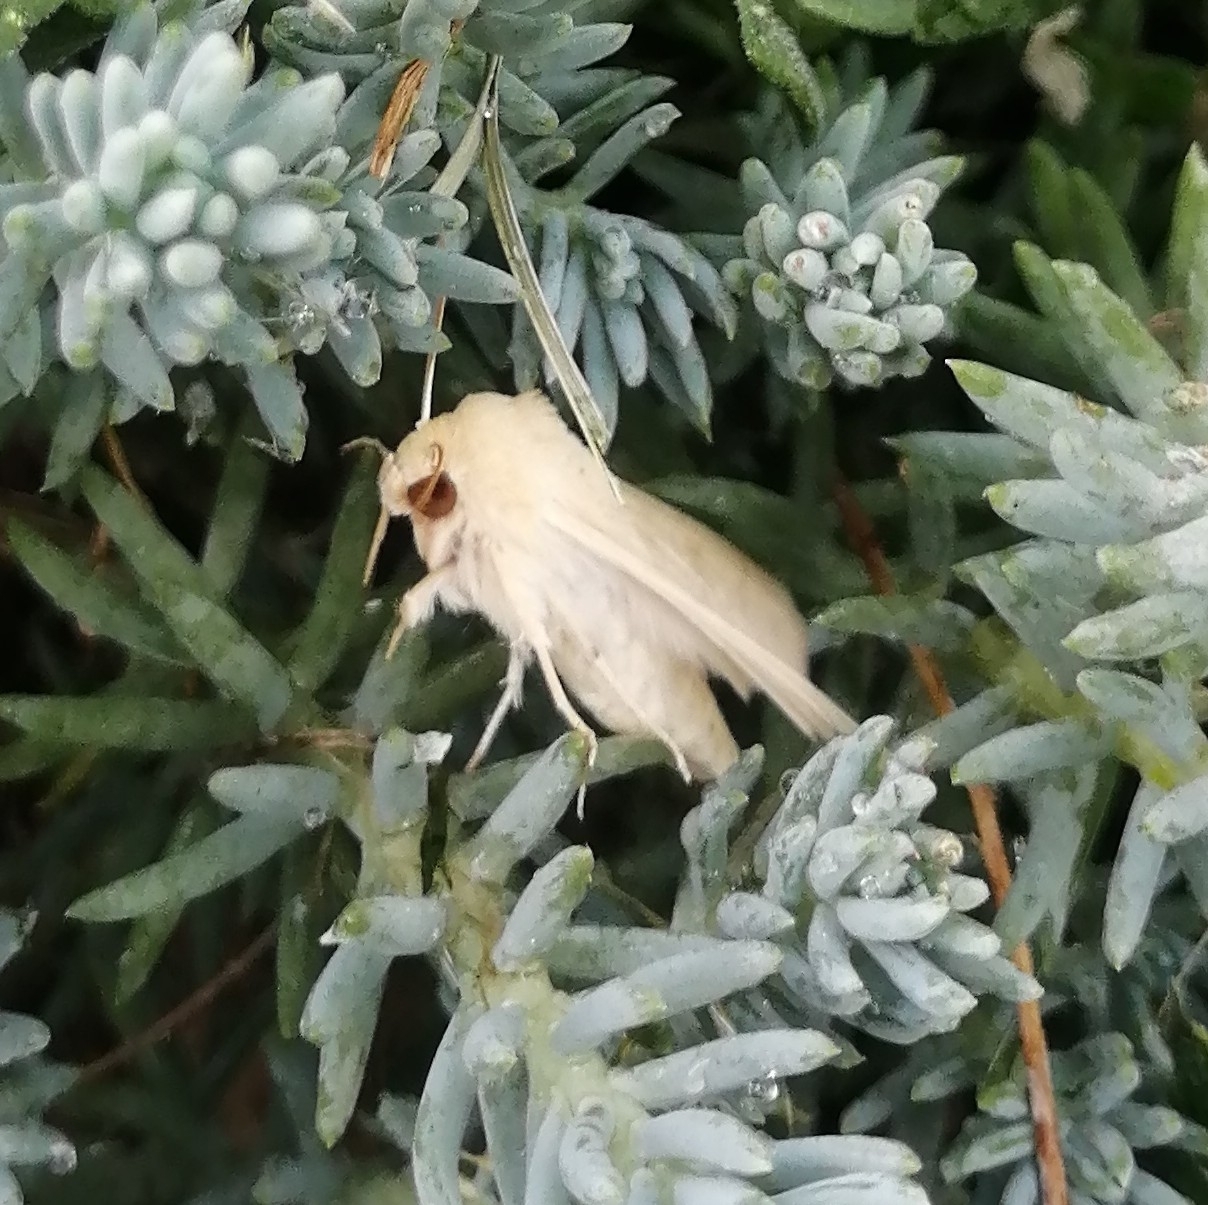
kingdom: Animalia
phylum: Arthropoda
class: Insecta
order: Lepidoptera
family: Noctuidae
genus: Mythimna
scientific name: Mythimna vitellina
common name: Delicate
